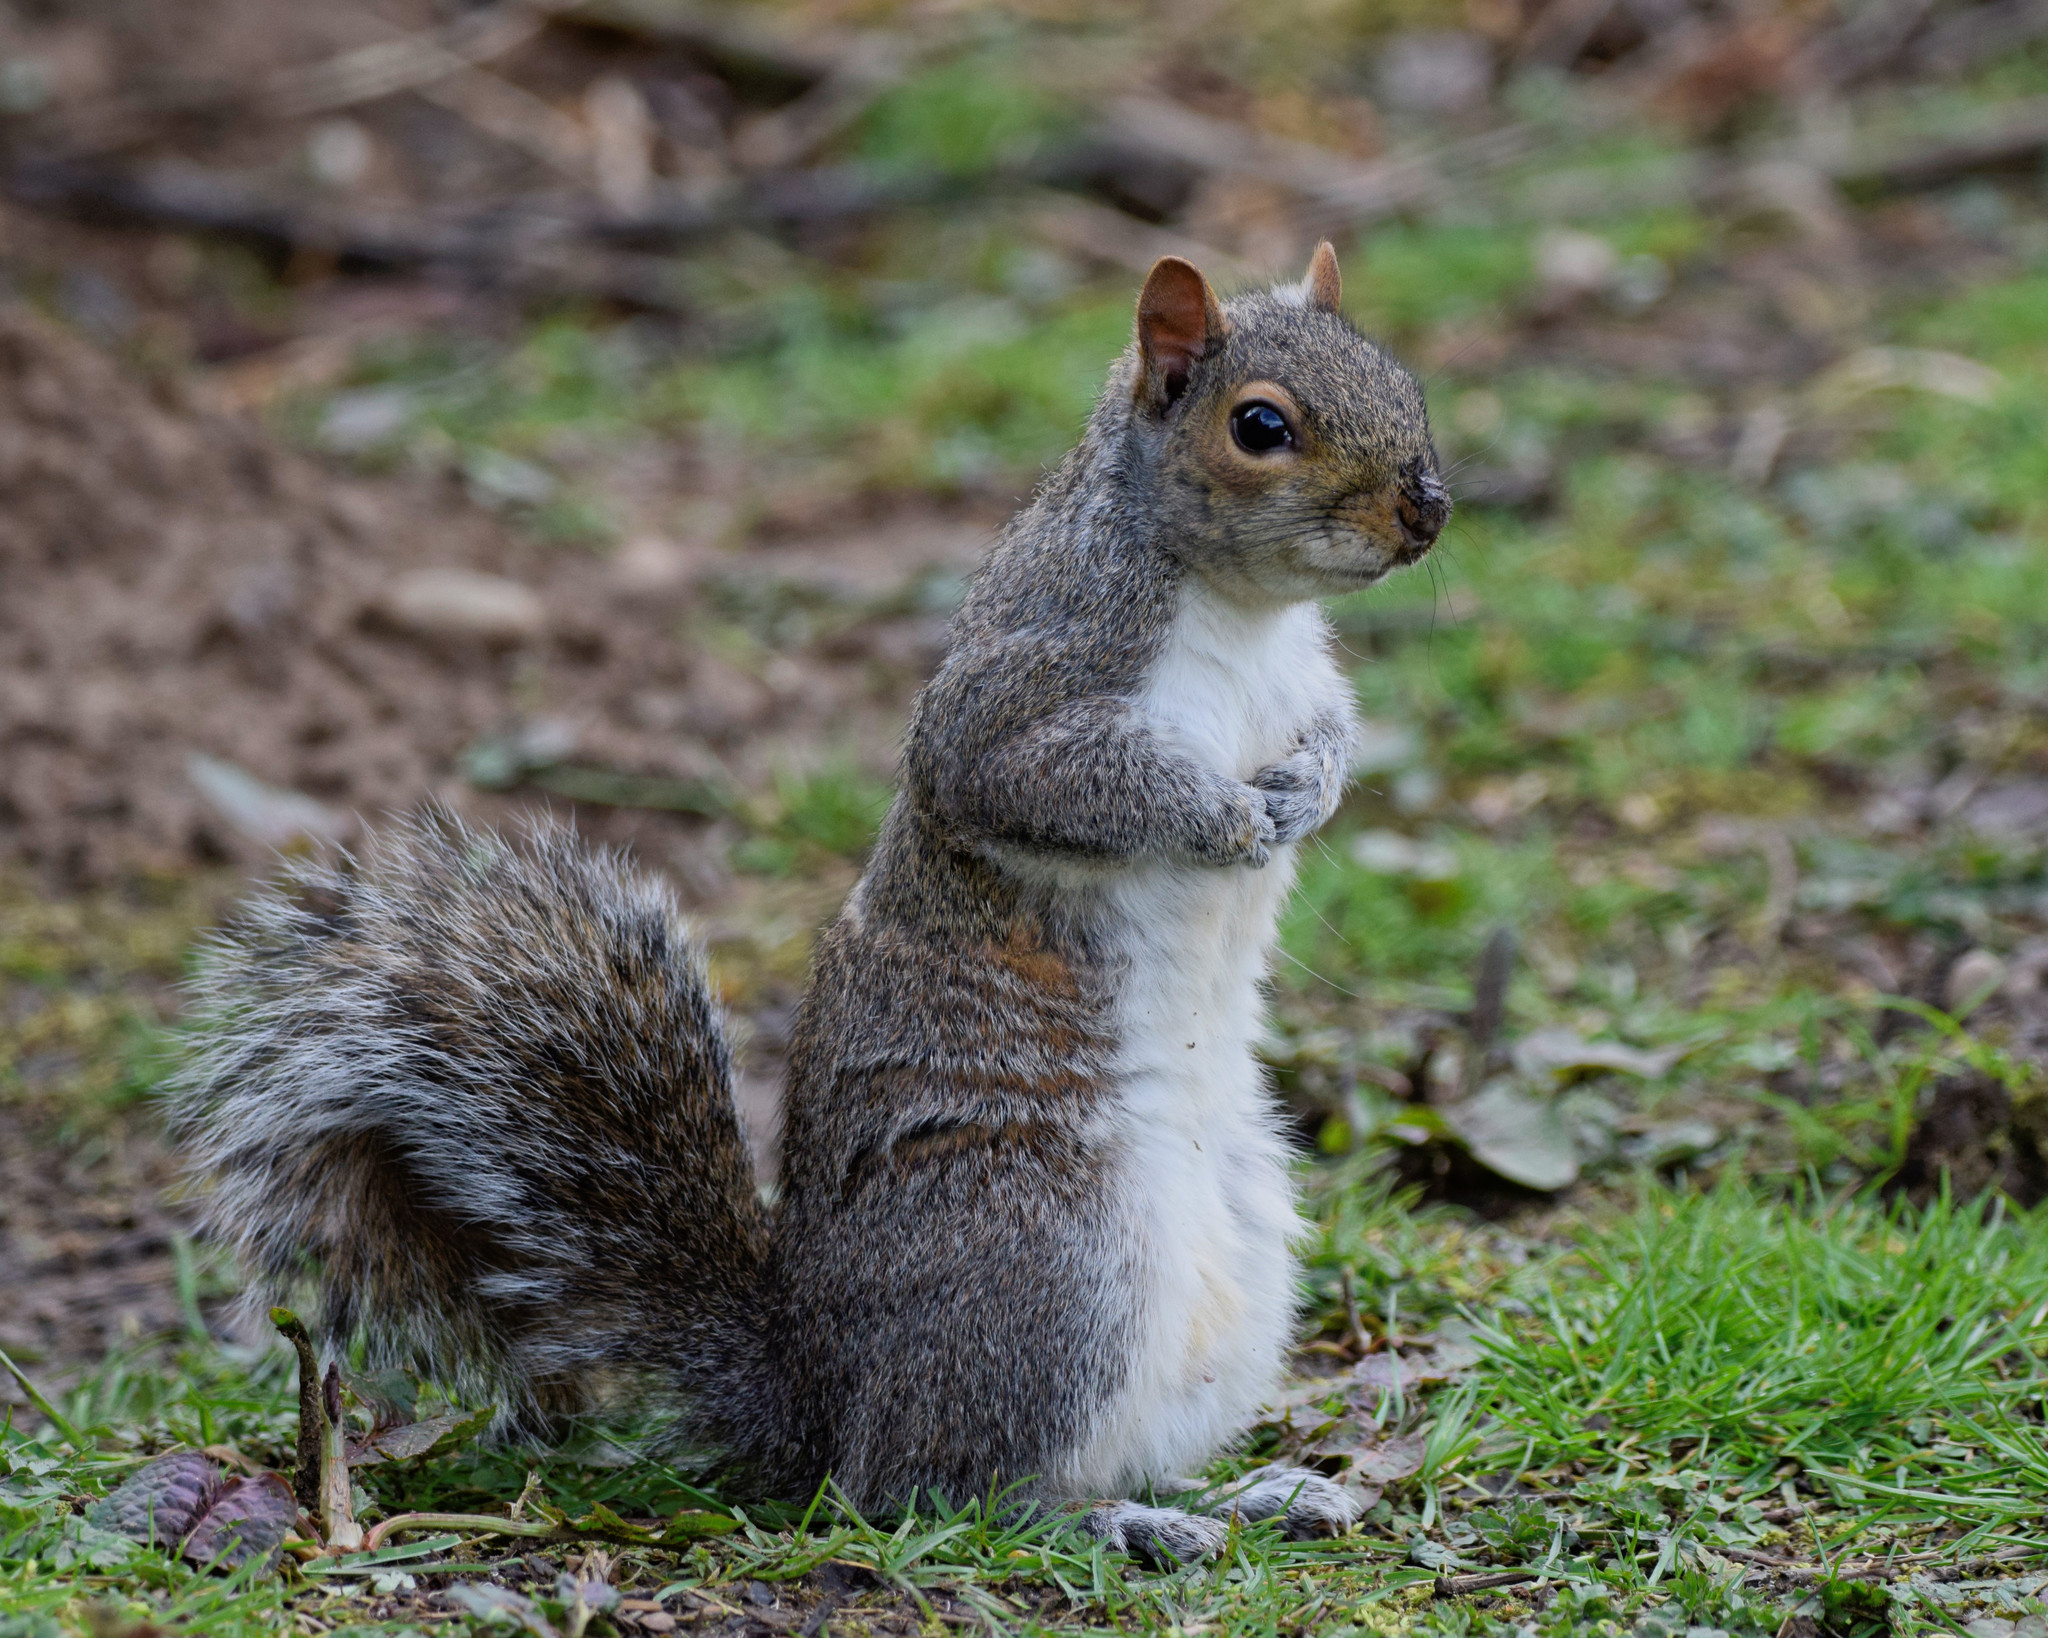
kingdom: Animalia
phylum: Chordata
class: Mammalia
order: Rodentia
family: Sciuridae
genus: Sciurus
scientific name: Sciurus carolinensis
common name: Eastern gray squirrel
